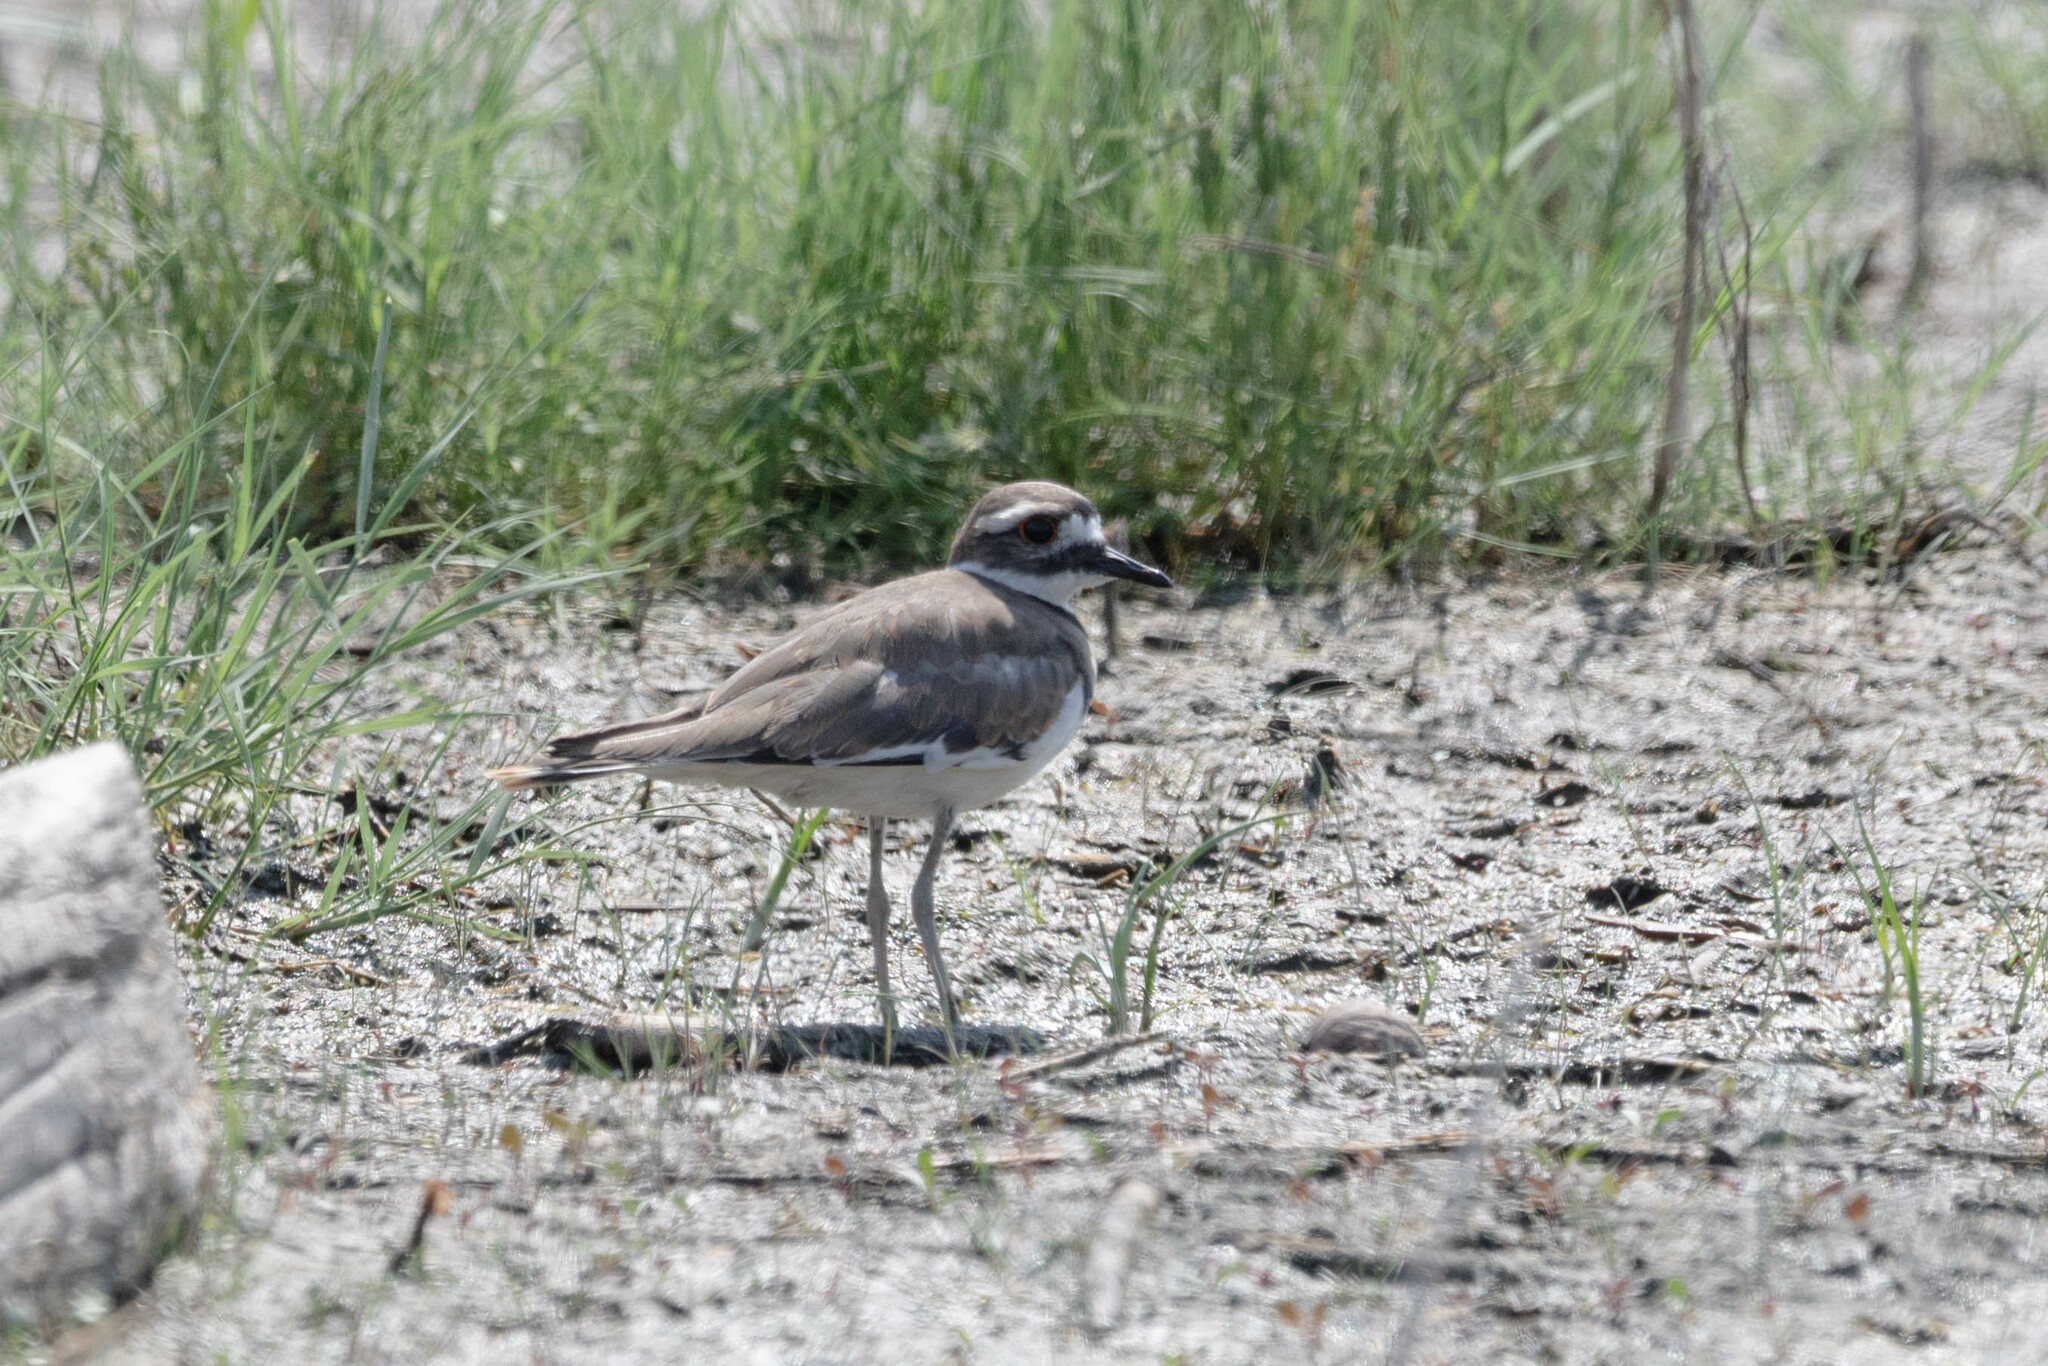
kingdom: Animalia
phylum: Chordata
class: Aves
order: Charadriiformes
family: Charadriidae
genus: Charadrius
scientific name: Charadrius vociferus
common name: Killdeer
